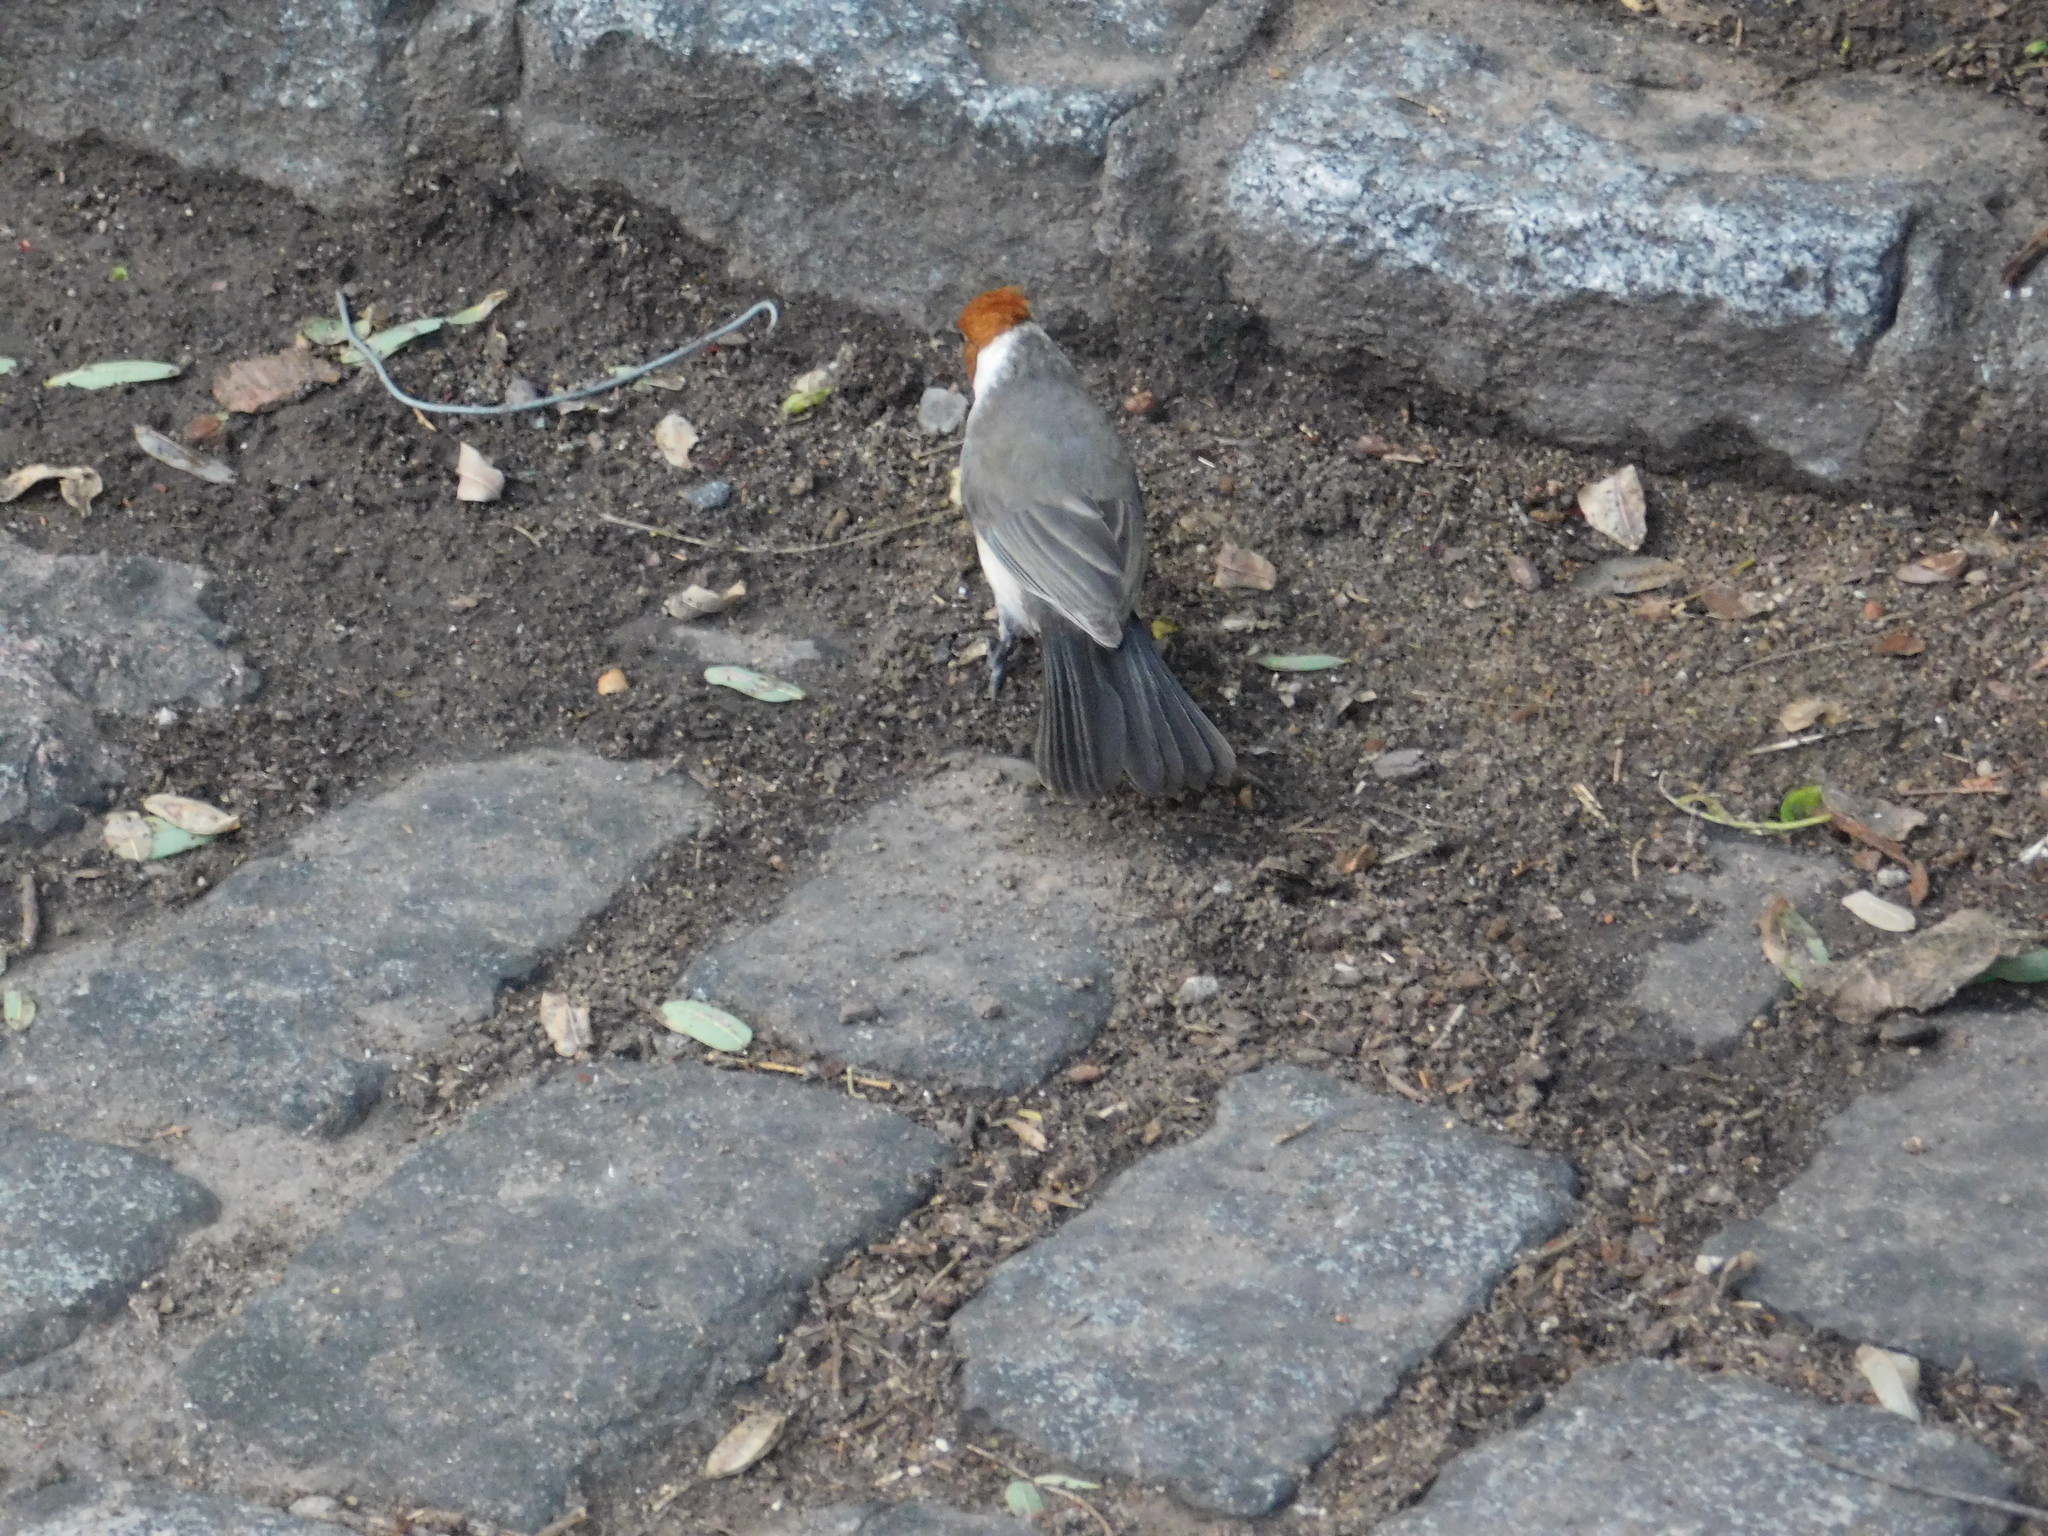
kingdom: Animalia
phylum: Chordata
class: Aves
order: Passeriformes
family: Thraupidae
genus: Paroaria
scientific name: Paroaria coronata
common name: Red-crested cardinal
